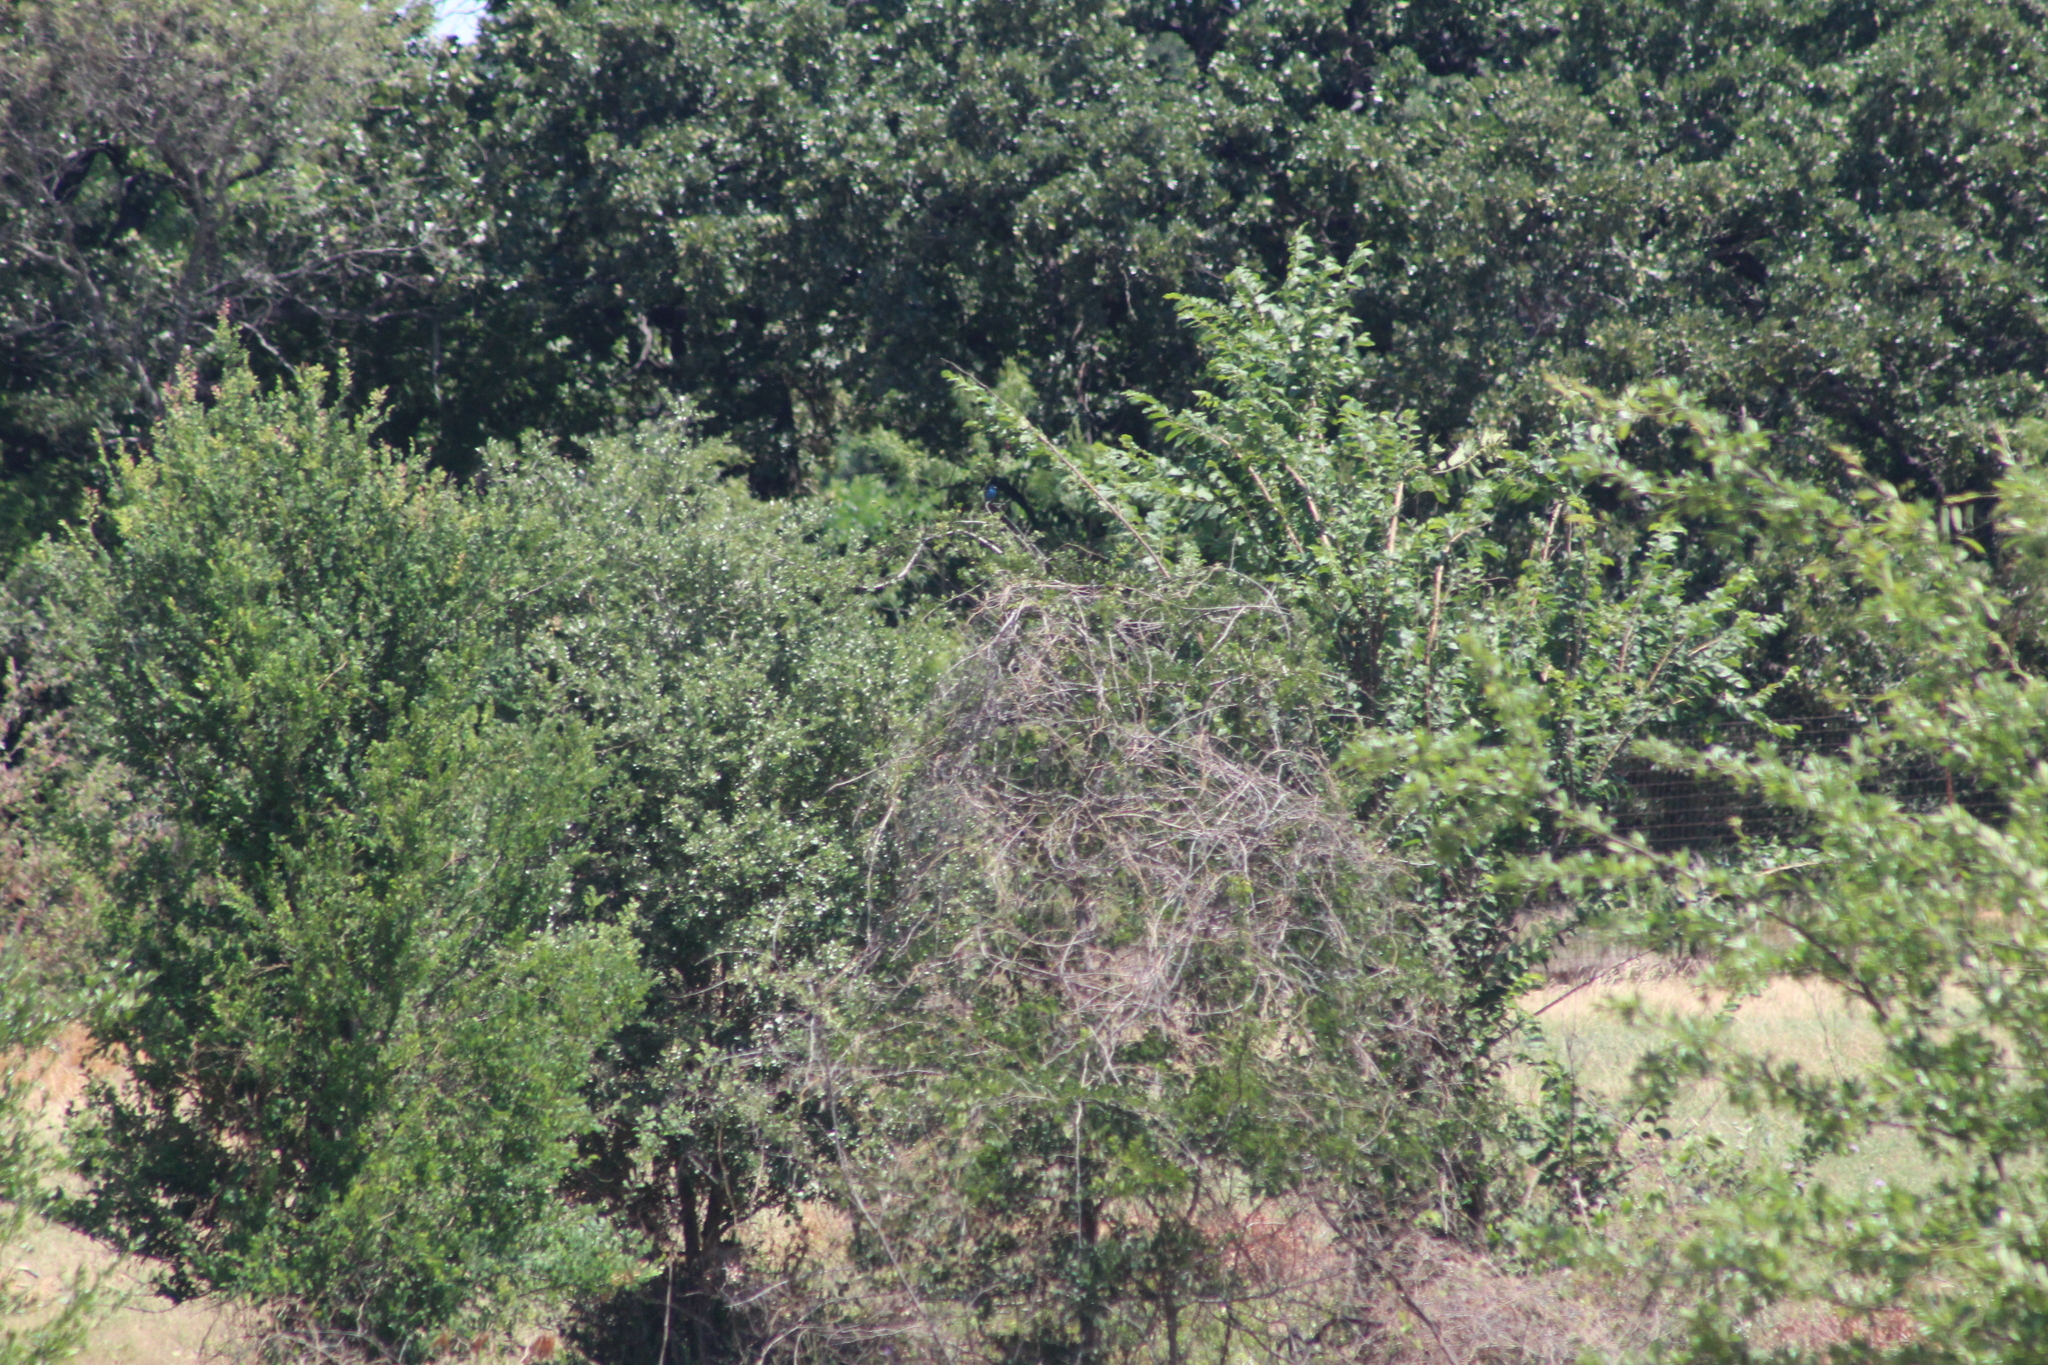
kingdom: Animalia
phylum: Chordata
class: Aves
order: Passeriformes
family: Cardinalidae
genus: Passerina
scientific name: Passerina cyanea
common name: Indigo bunting
